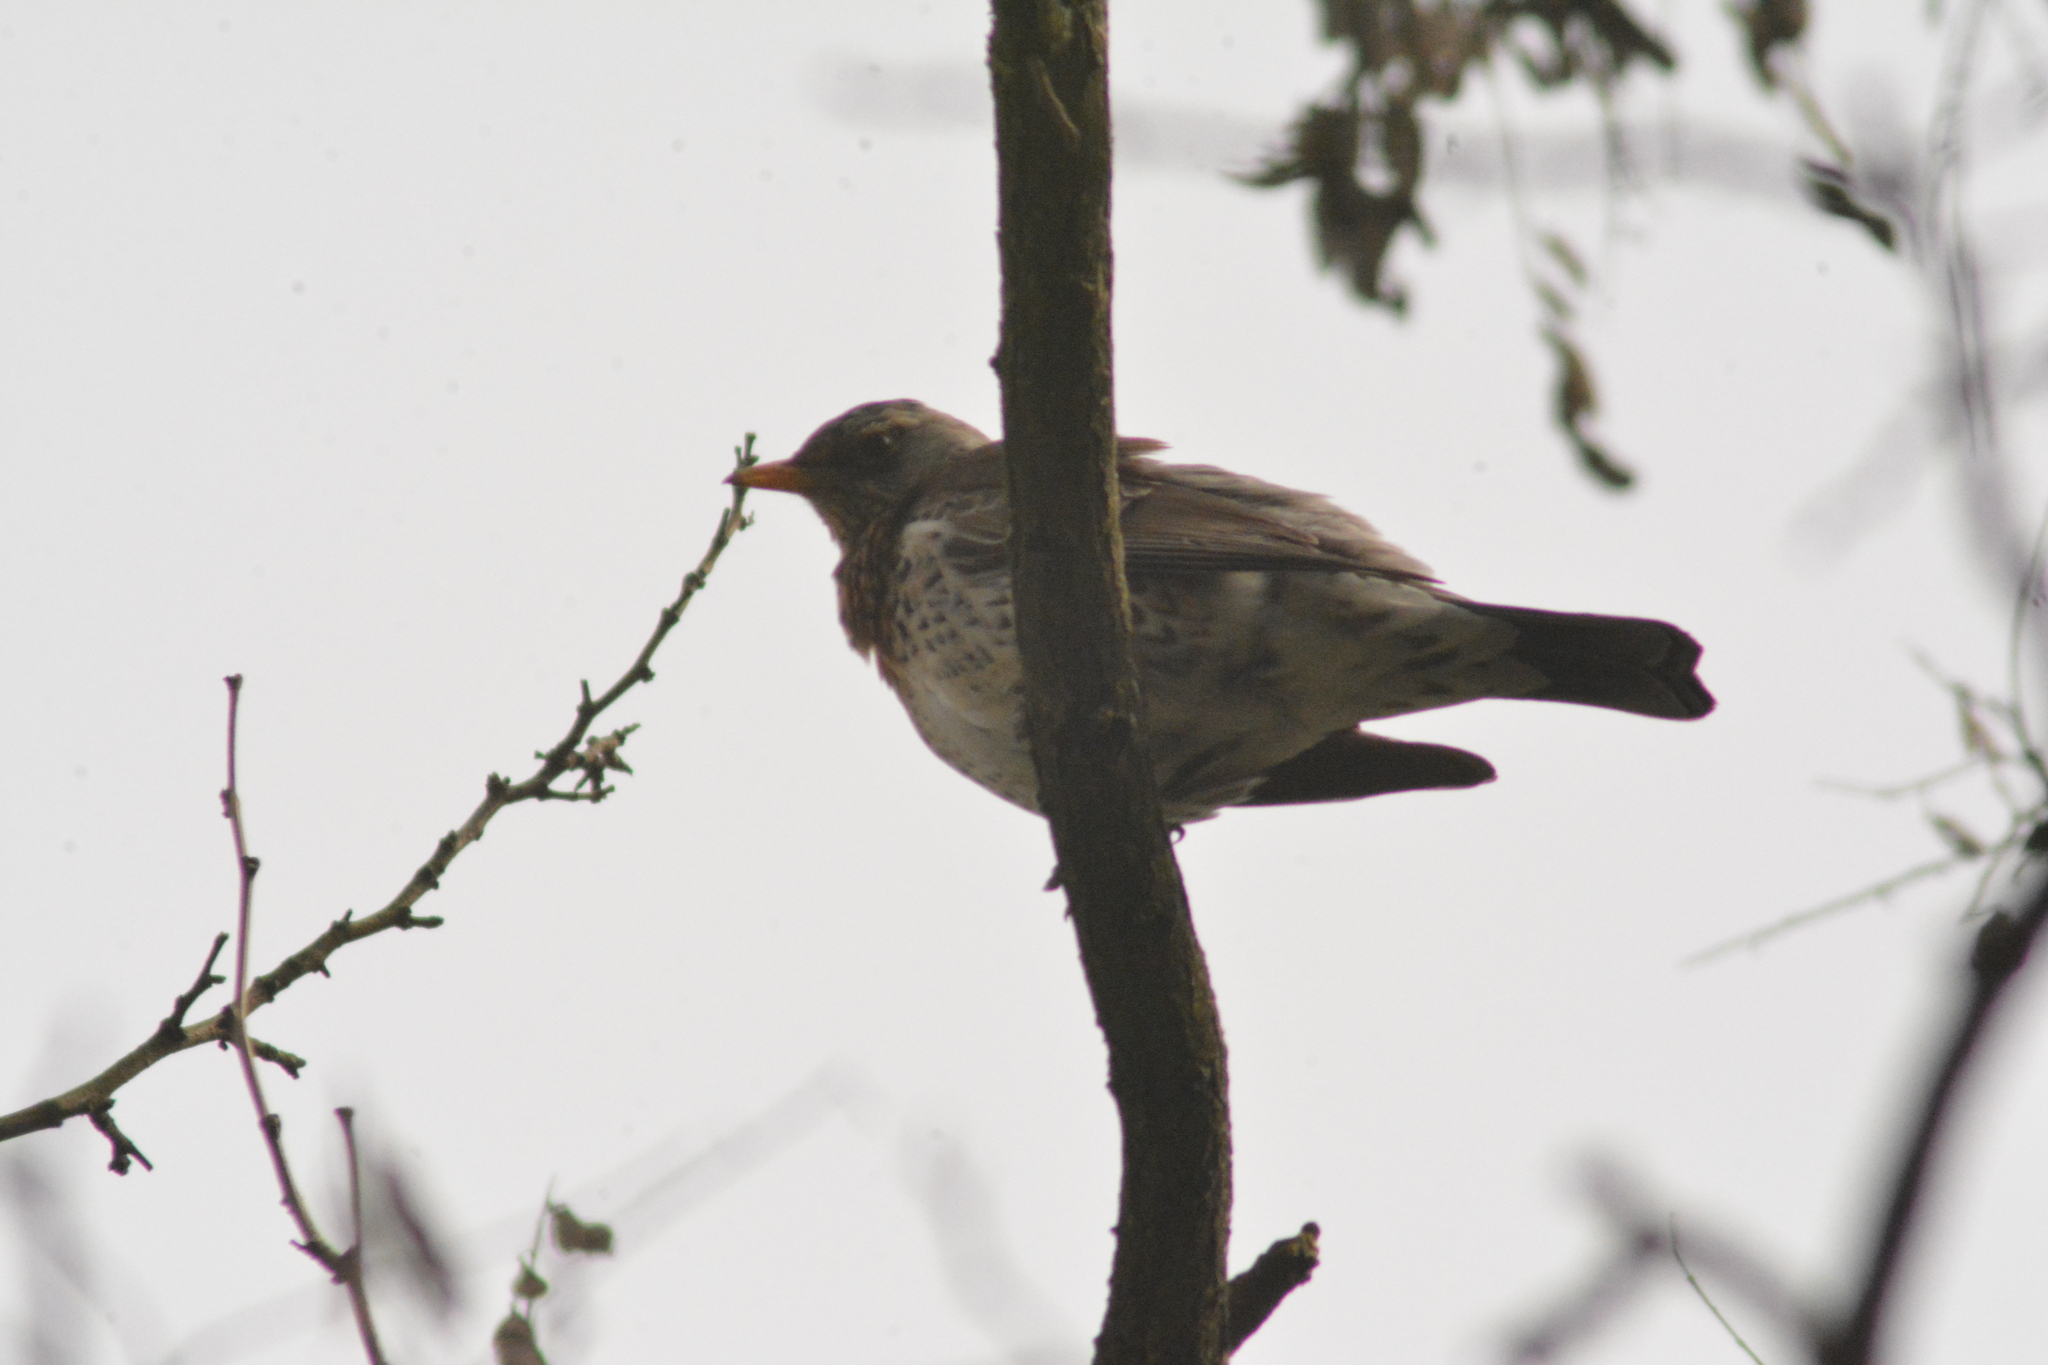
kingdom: Animalia
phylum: Chordata
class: Aves
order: Passeriformes
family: Turdidae
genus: Turdus
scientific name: Turdus pilaris
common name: Fieldfare
